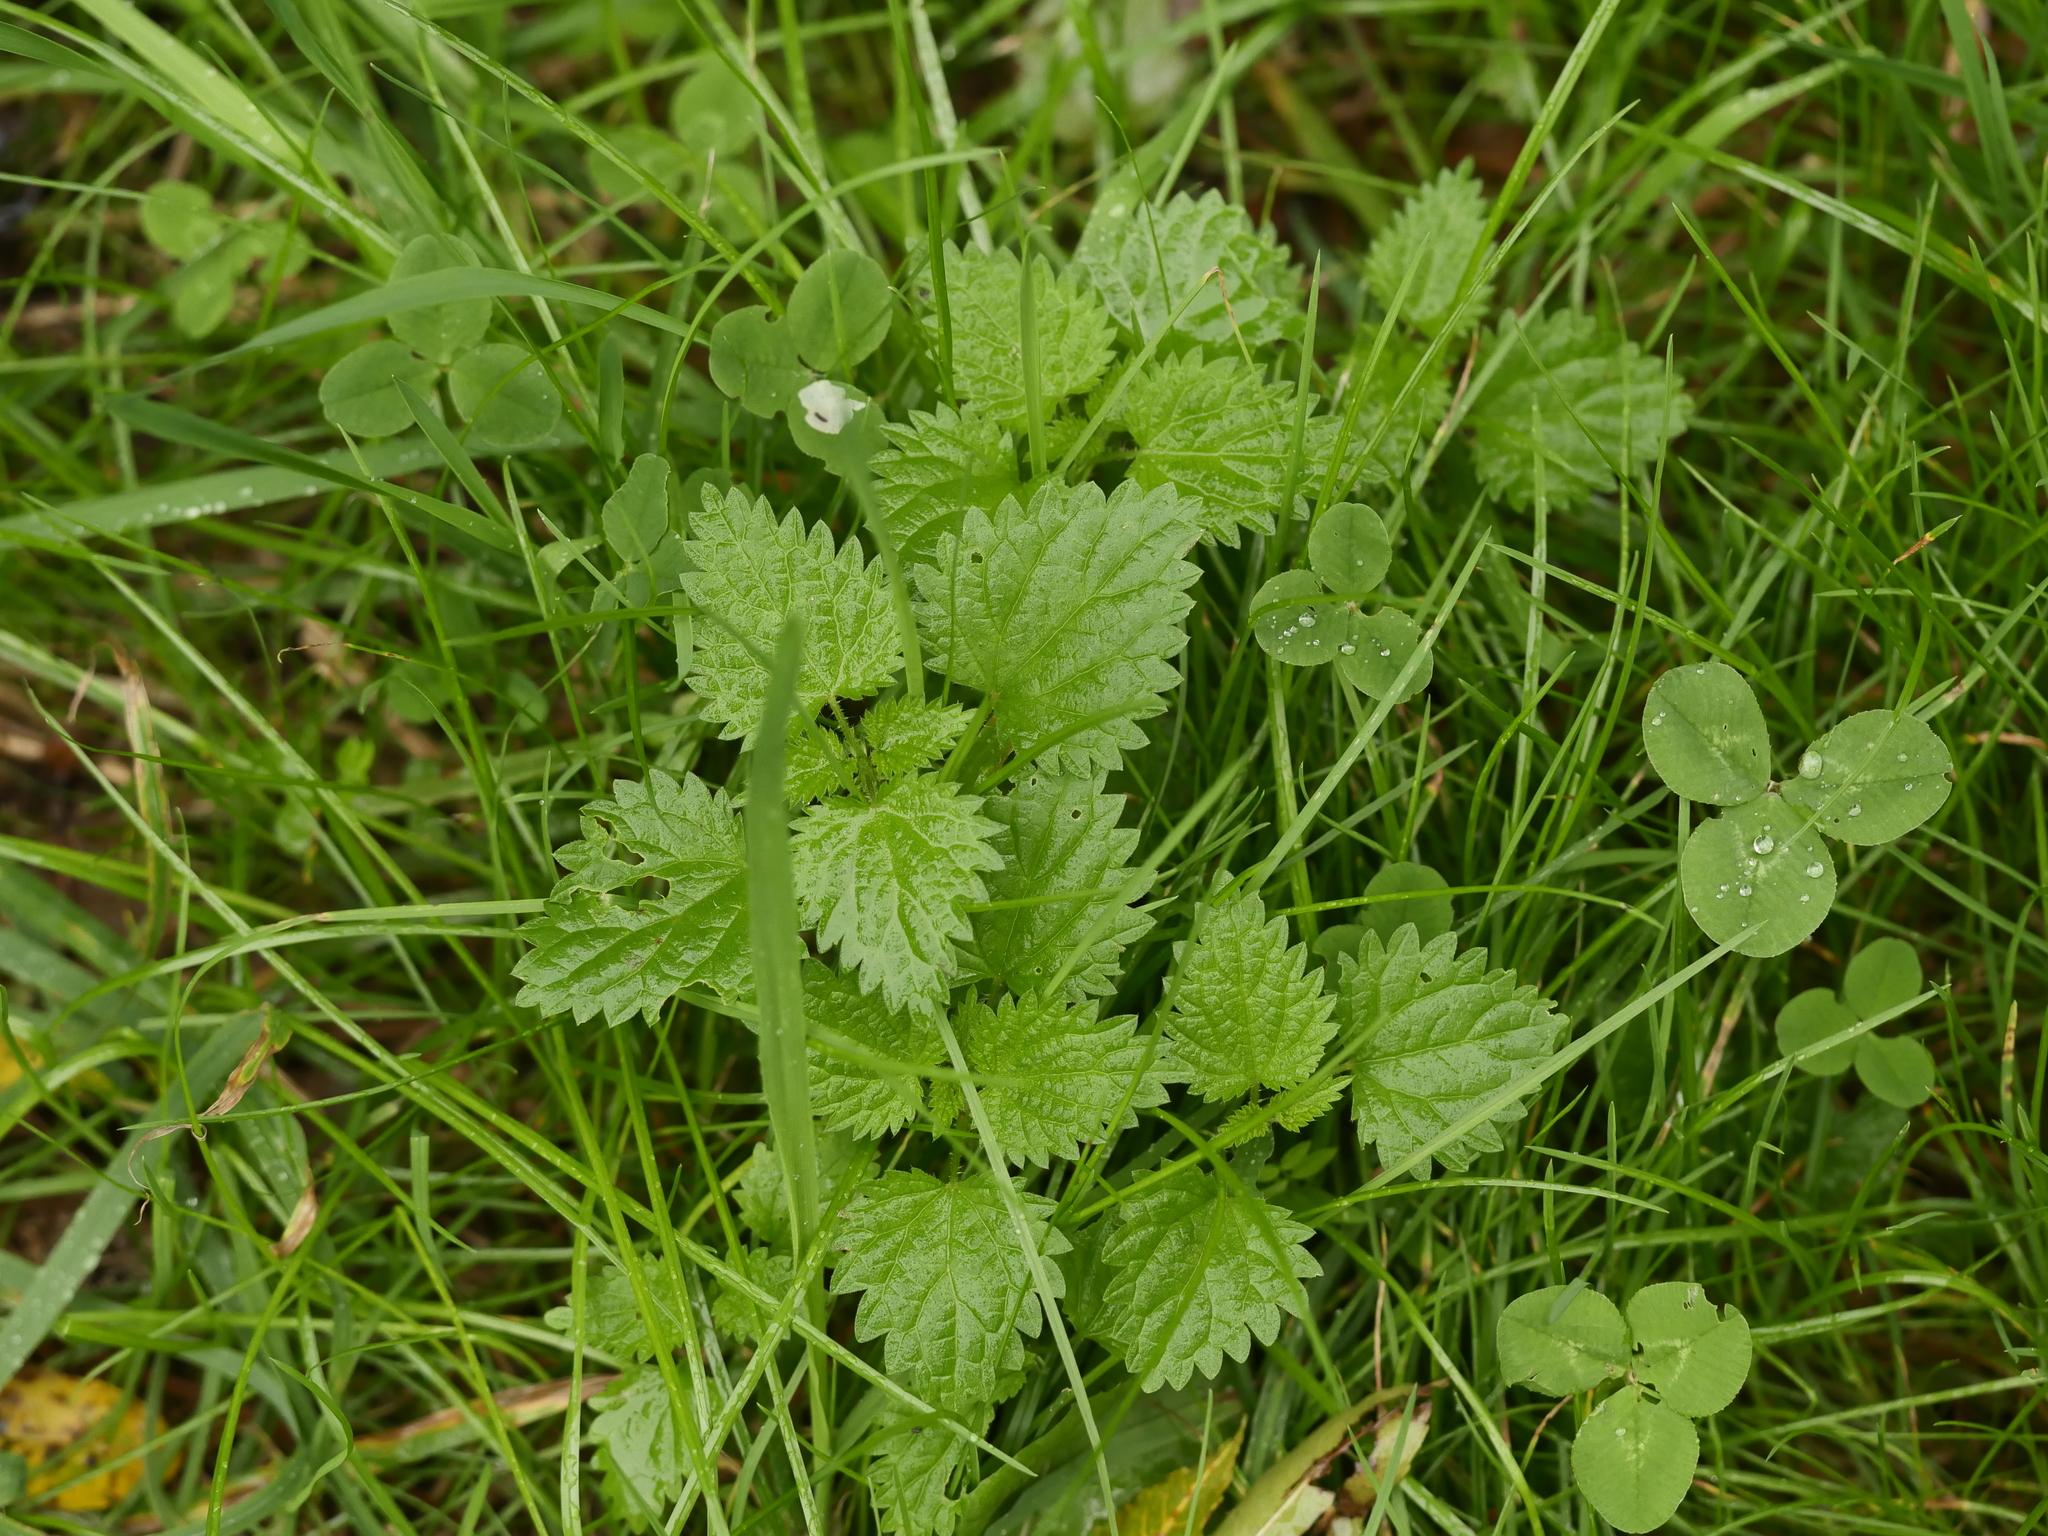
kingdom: Plantae
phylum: Tracheophyta
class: Magnoliopsida
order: Rosales
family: Urticaceae
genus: Urtica
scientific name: Urtica dioica
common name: Common nettle
